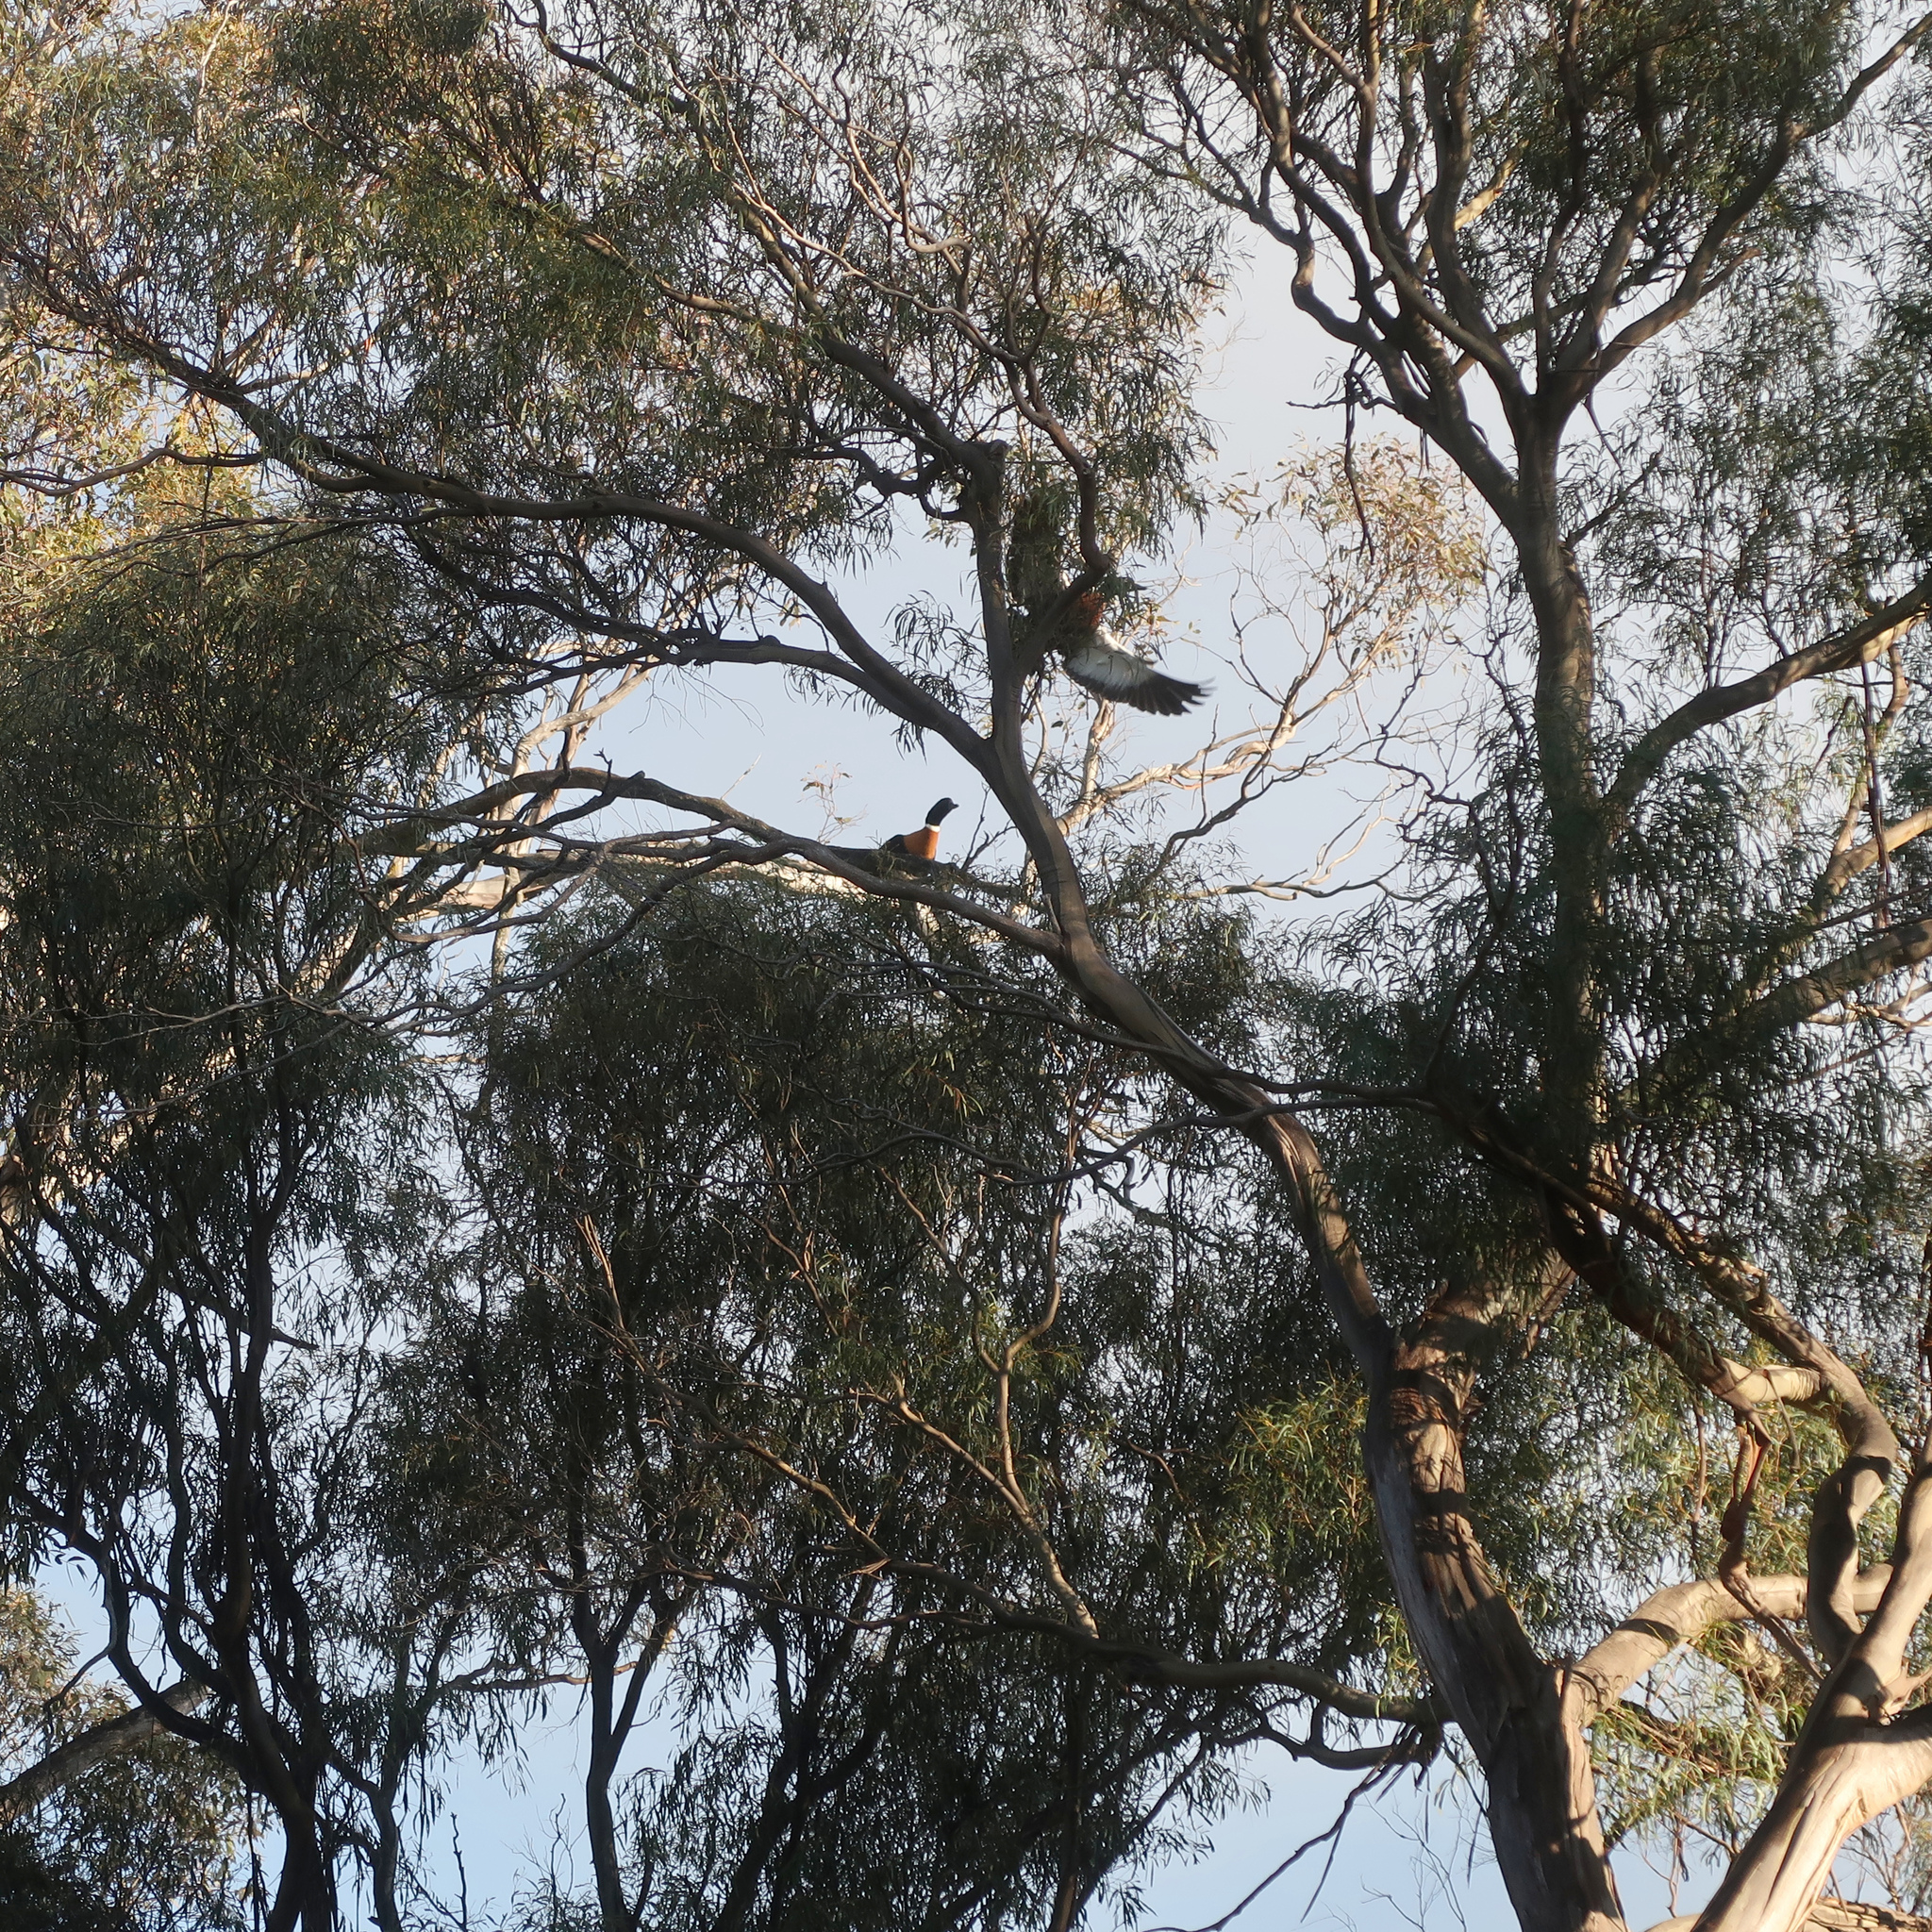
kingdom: Animalia
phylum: Chordata
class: Aves
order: Anseriformes
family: Anatidae
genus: Tadorna
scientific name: Tadorna tadornoides
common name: Australian shelduck
